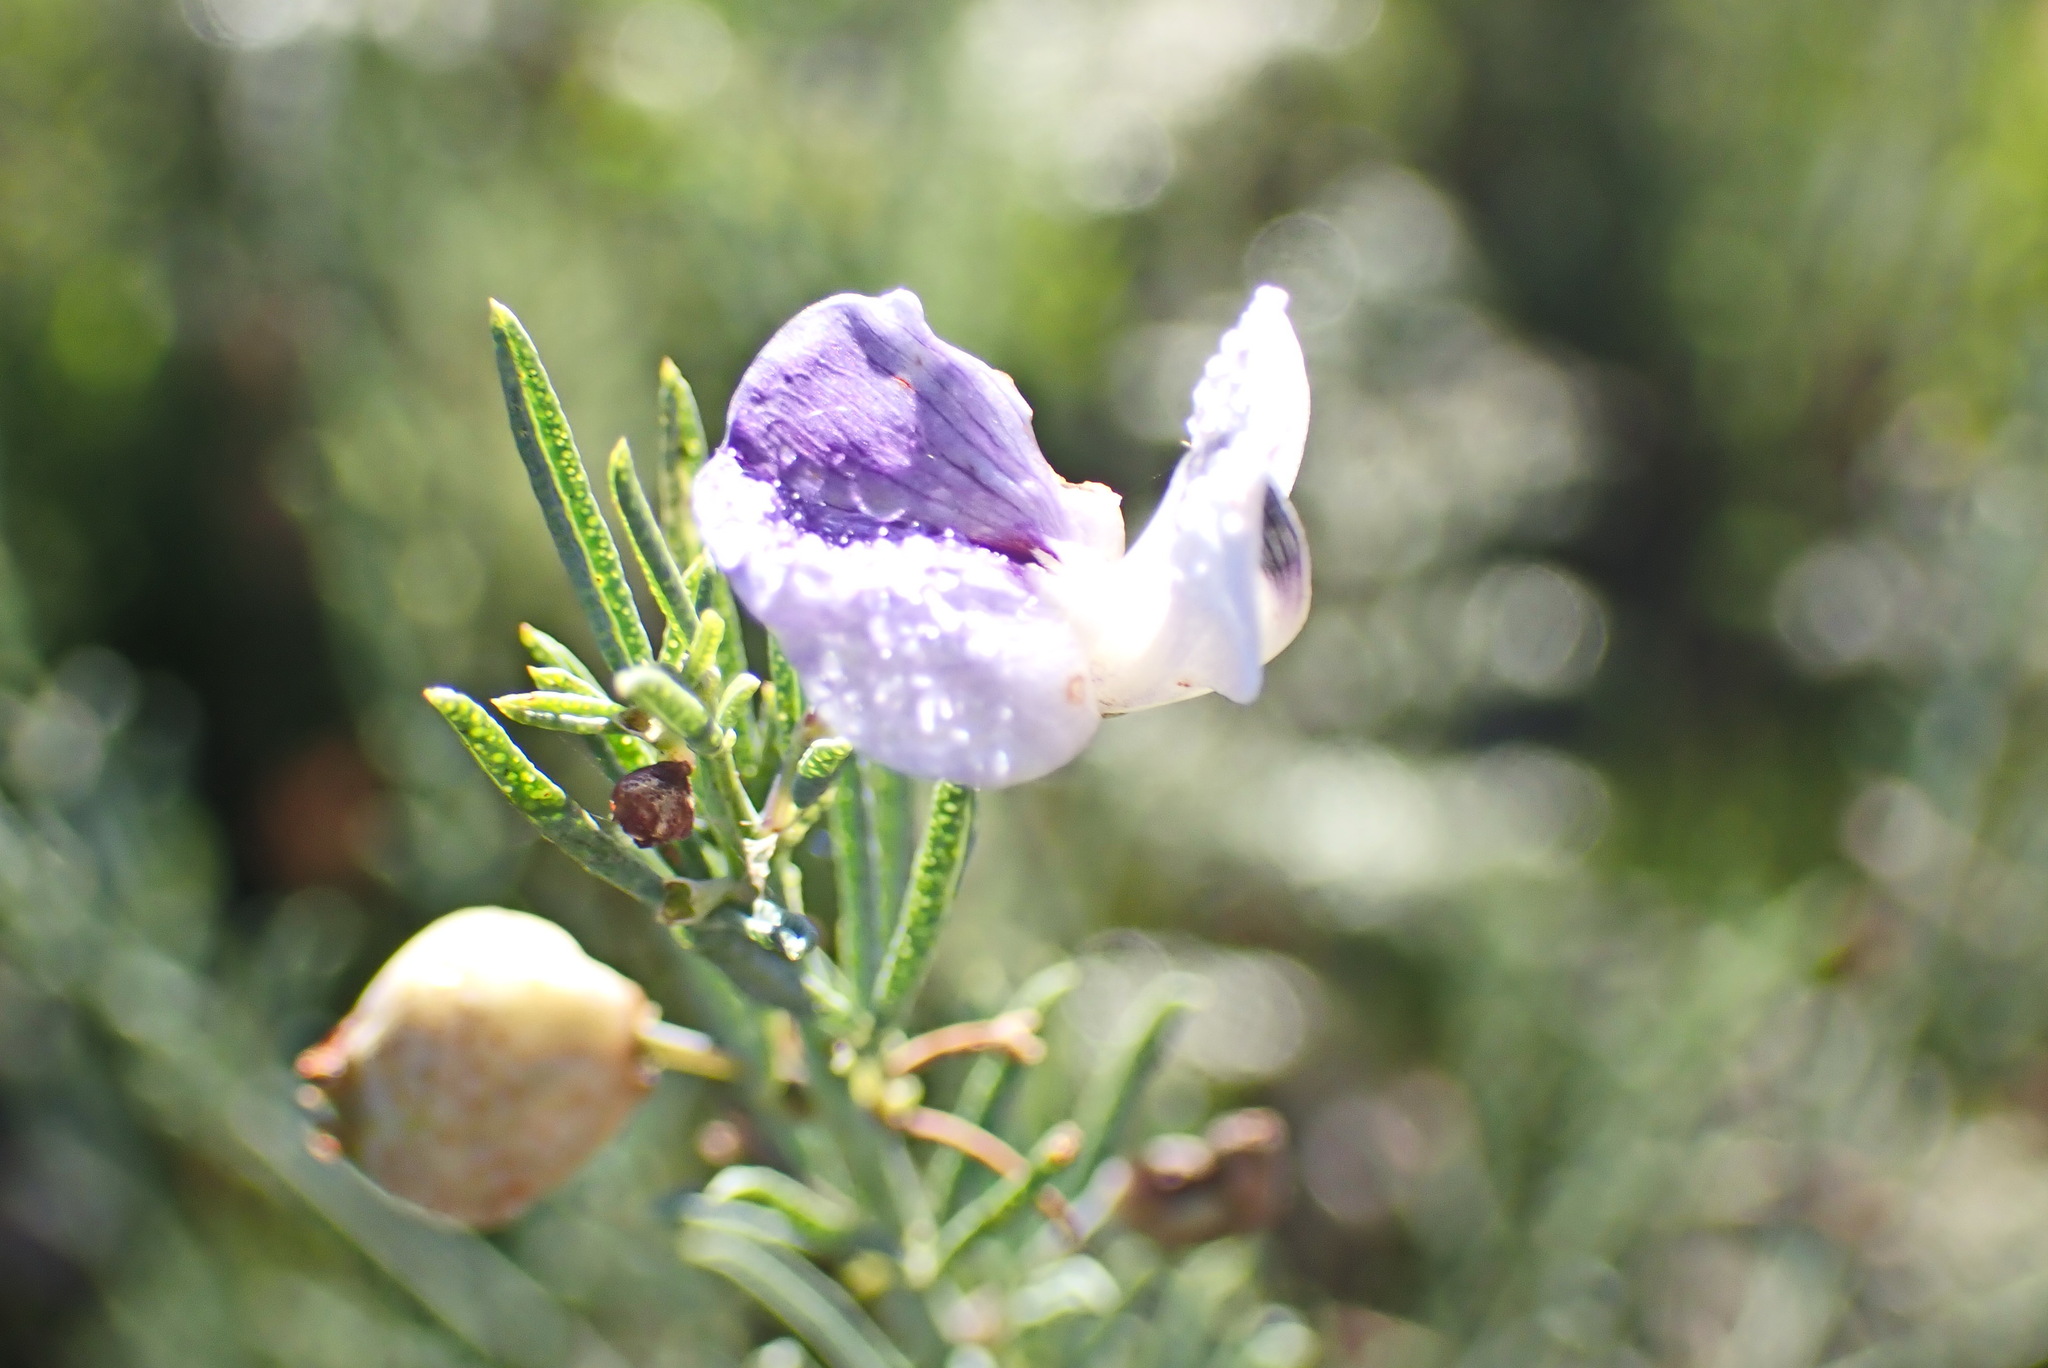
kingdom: Plantae
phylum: Tracheophyta
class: Magnoliopsida
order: Fabales
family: Fabaceae
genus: Psoralea
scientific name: Psoralea axillaris
